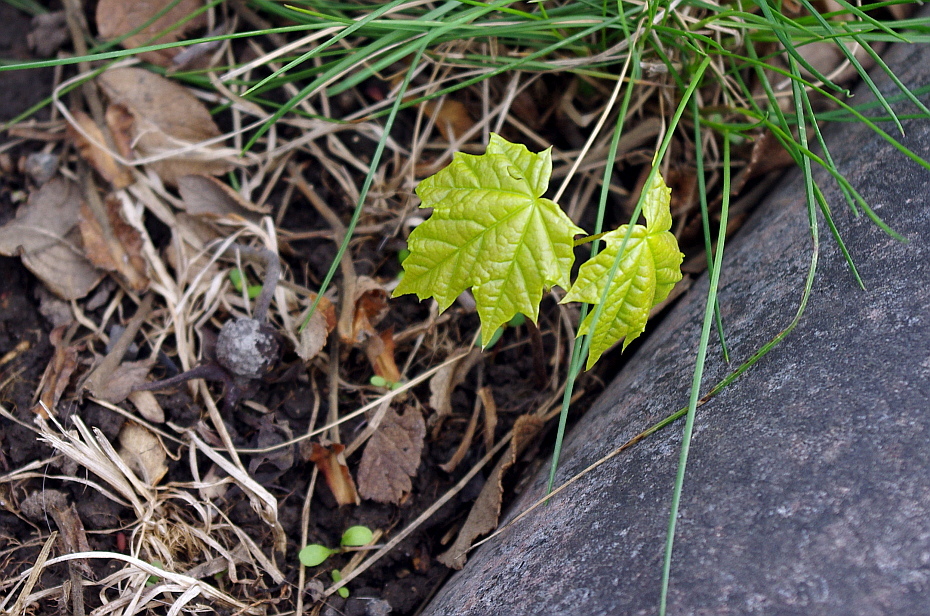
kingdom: Plantae
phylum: Tracheophyta
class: Magnoliopsida
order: Sapindales
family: Sapindaceae
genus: Acer
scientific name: Acer platanoides
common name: Norway maple
